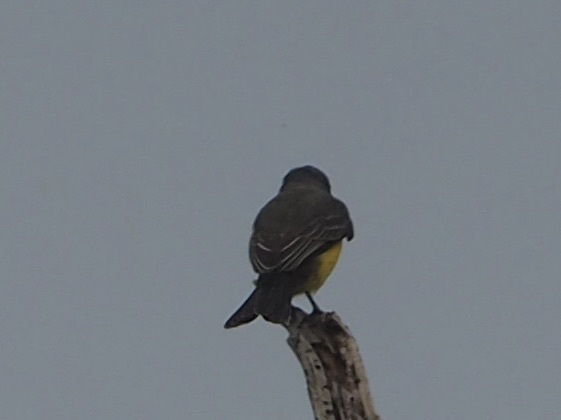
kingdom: Animalia
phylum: Chordata
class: Aves
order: Passeriformes
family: Tyrannidae
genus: Tyrannus
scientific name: Tyrannus melancholicus
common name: Tropical kingbird
